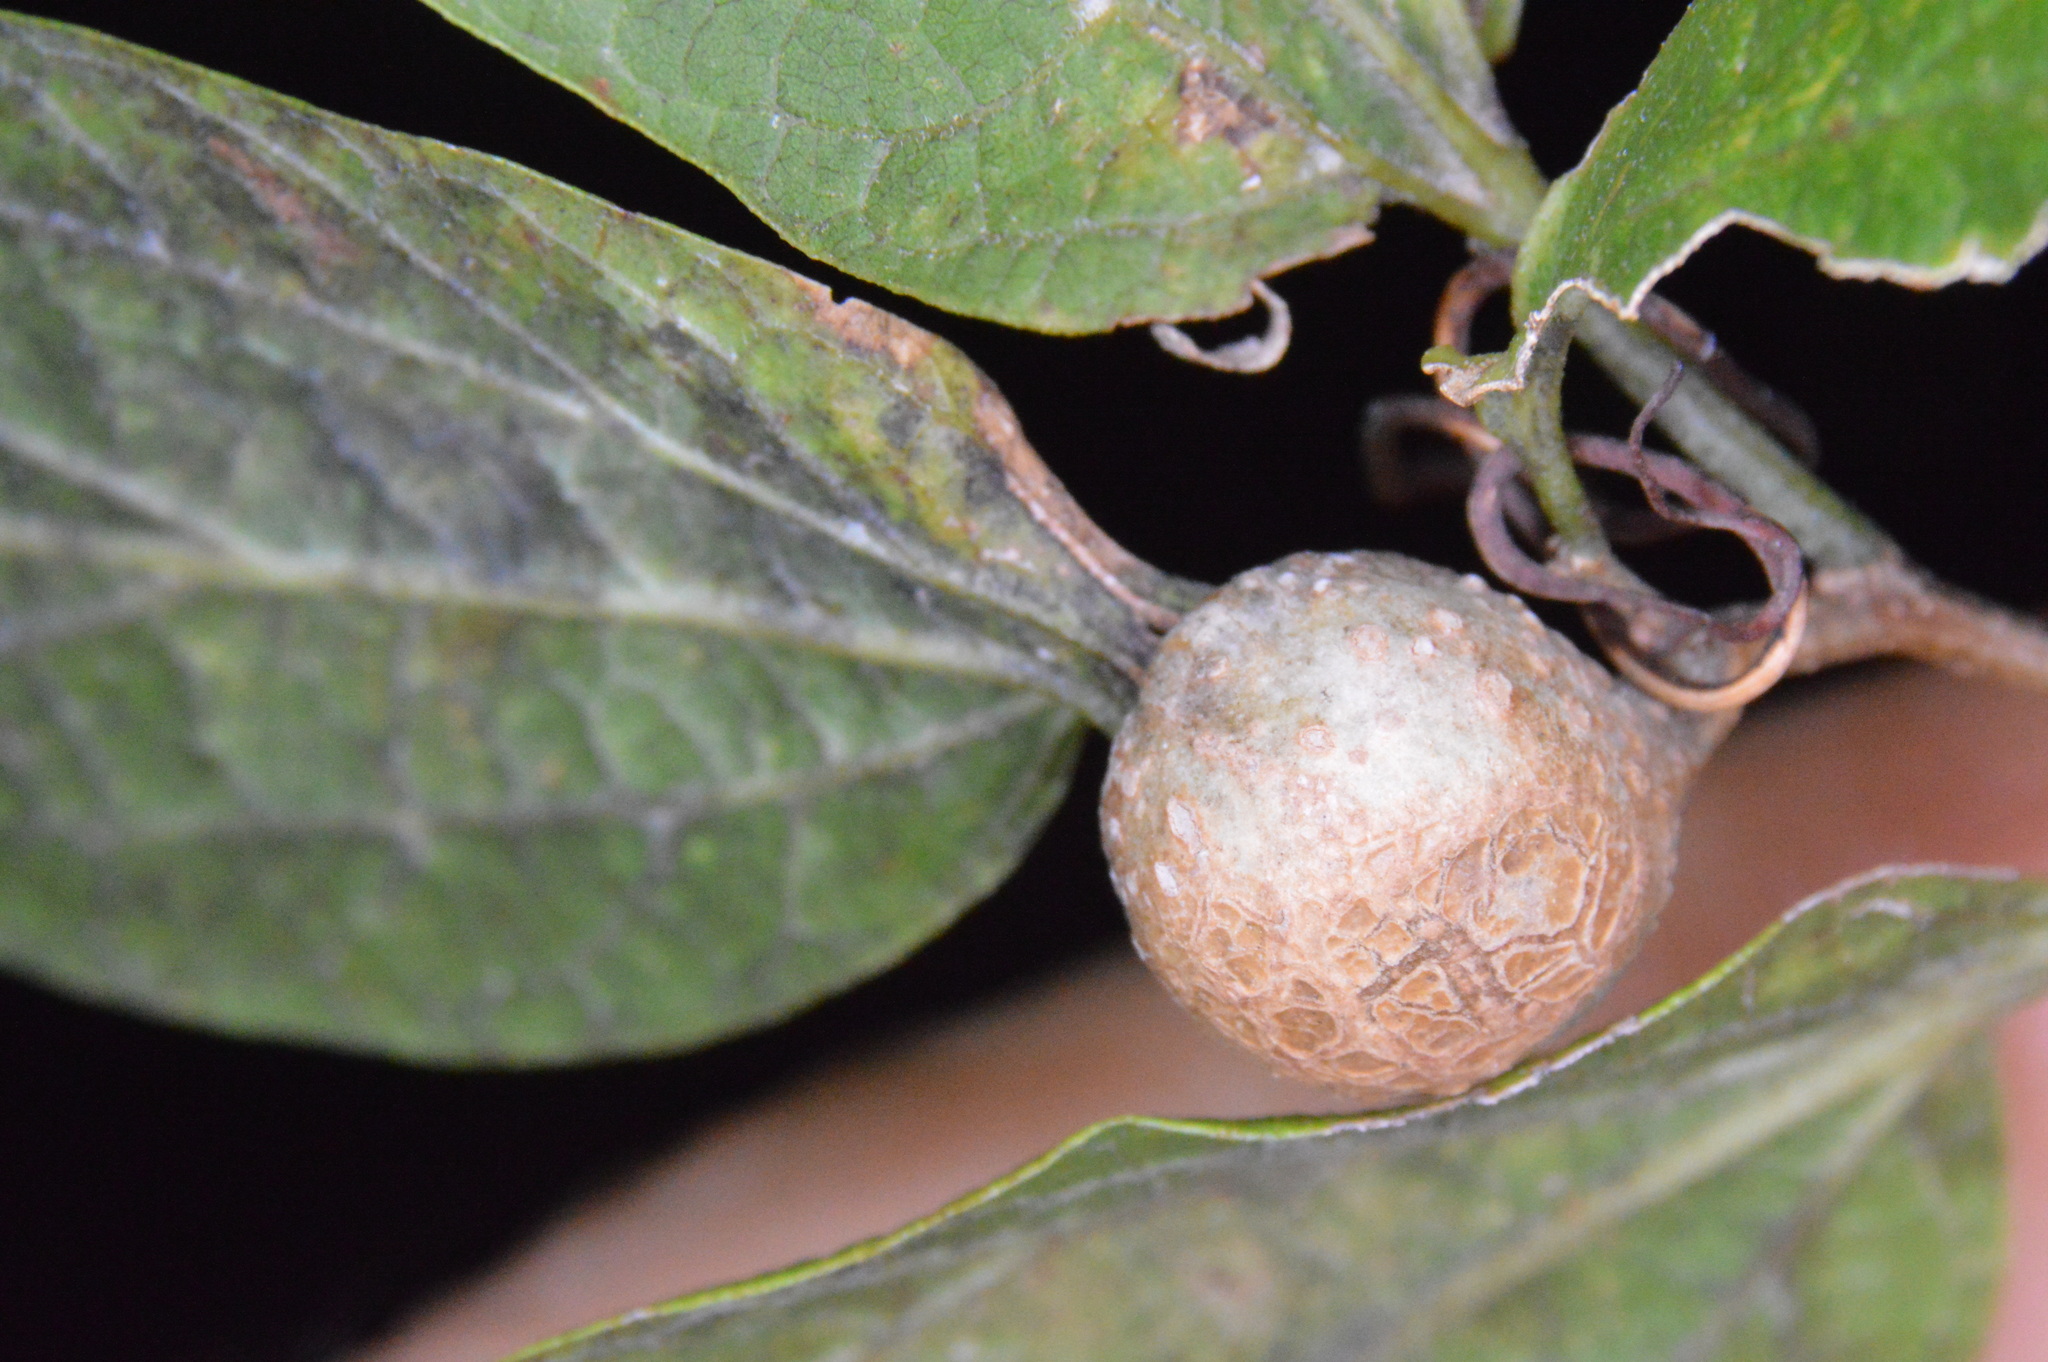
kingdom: Animalia
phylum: Arthropoda
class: Insecta
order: Hemiptera
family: Aphalaridae
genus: Pachypsylla
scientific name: Pachypsylla venusta
